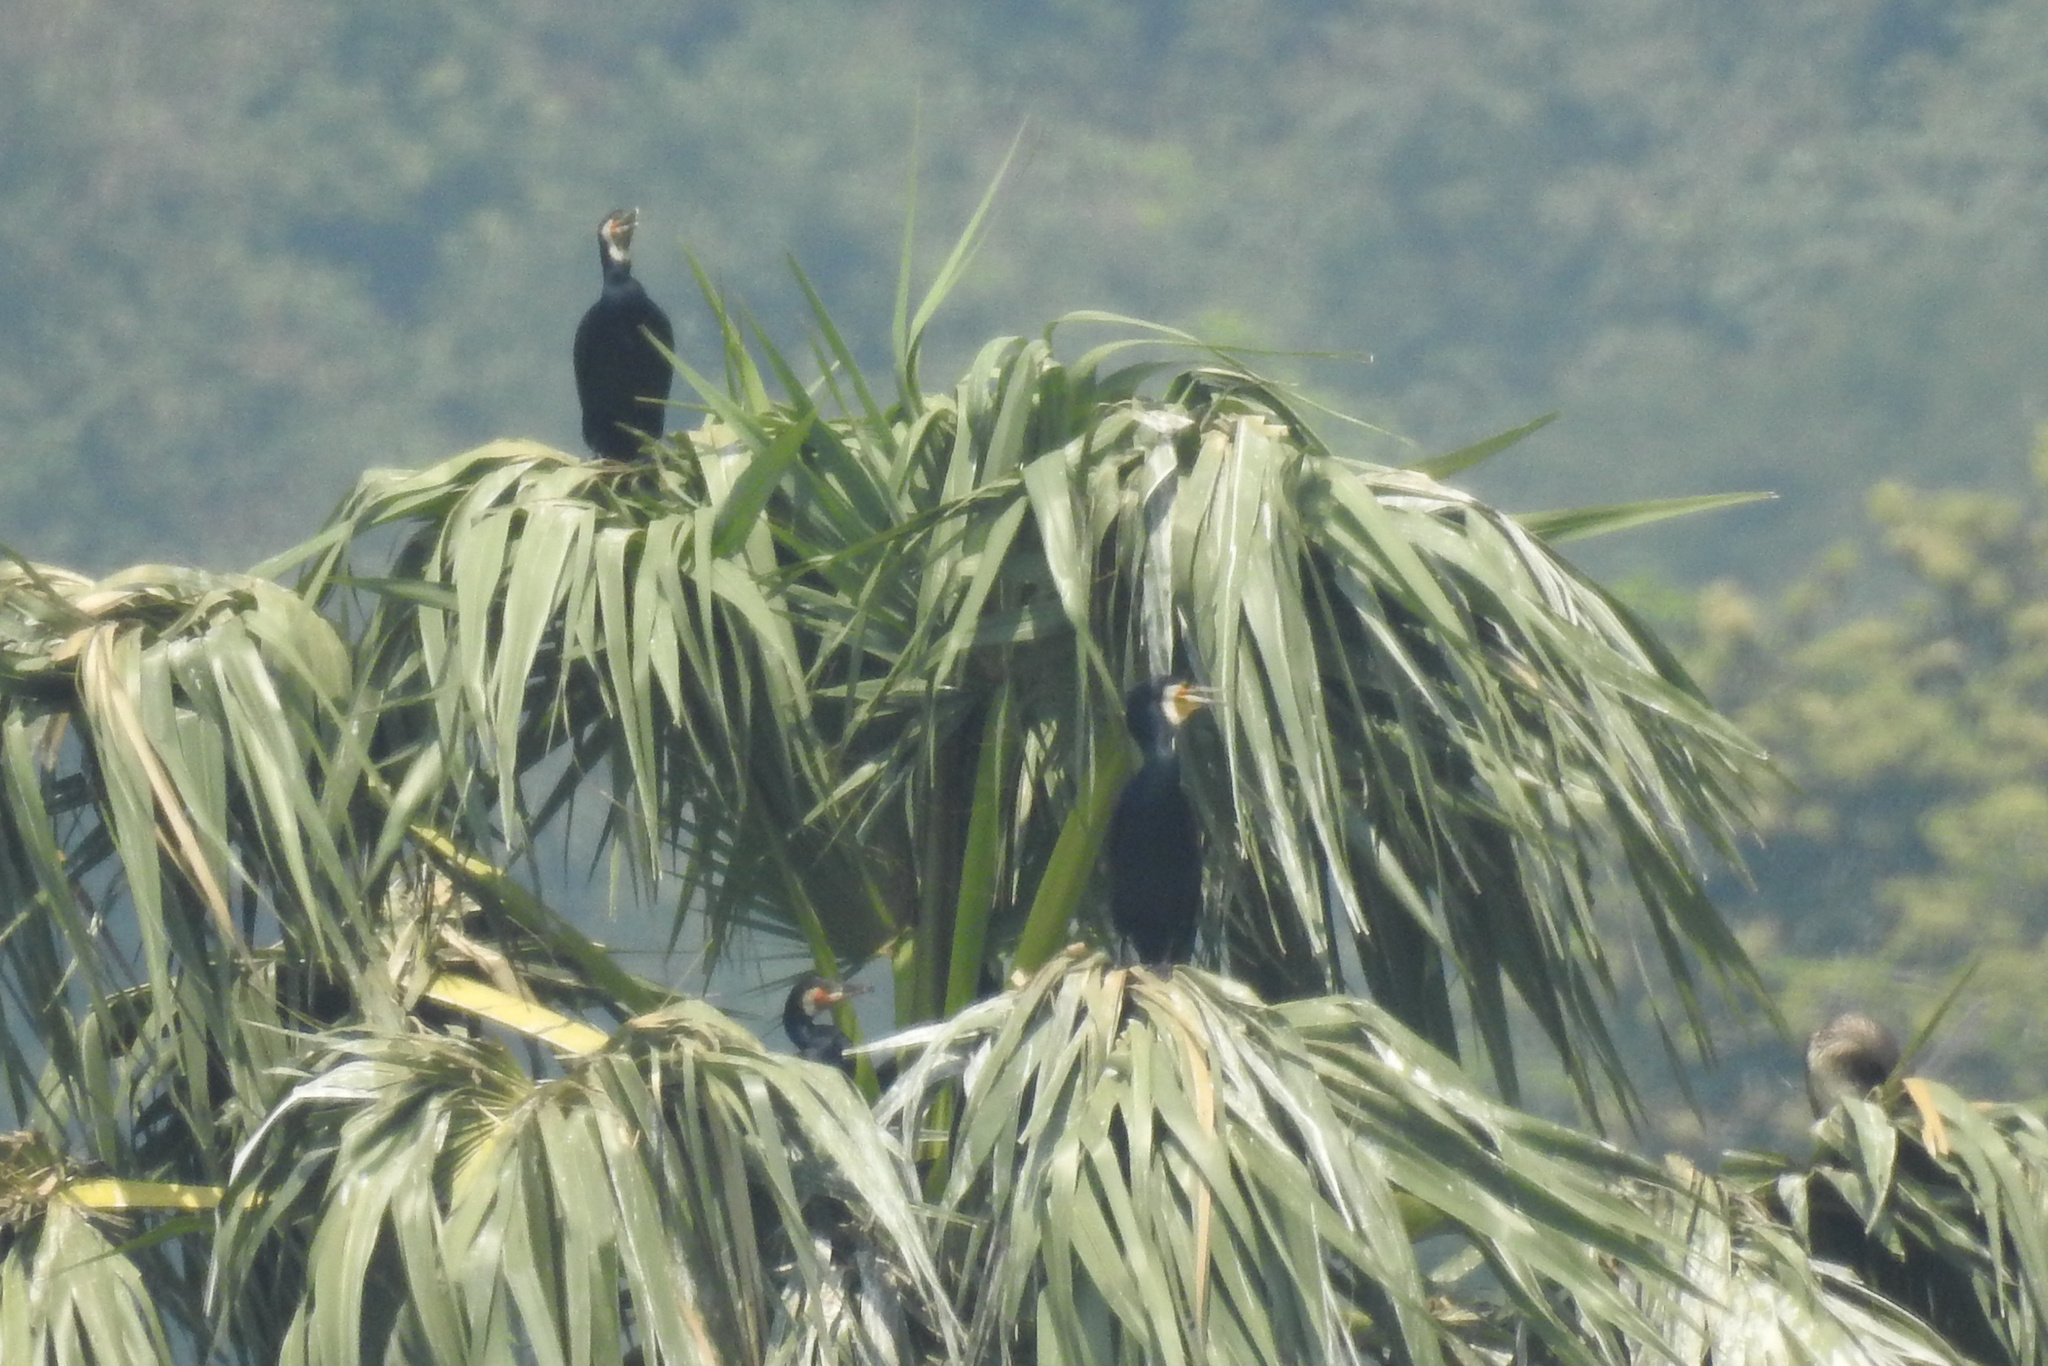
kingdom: Animalia
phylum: Chordata
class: Aves
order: Suliformes
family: Phalacrocoracidae
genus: Phalacrocorax
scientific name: Phalacrocorax carbo
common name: Great cormorant
